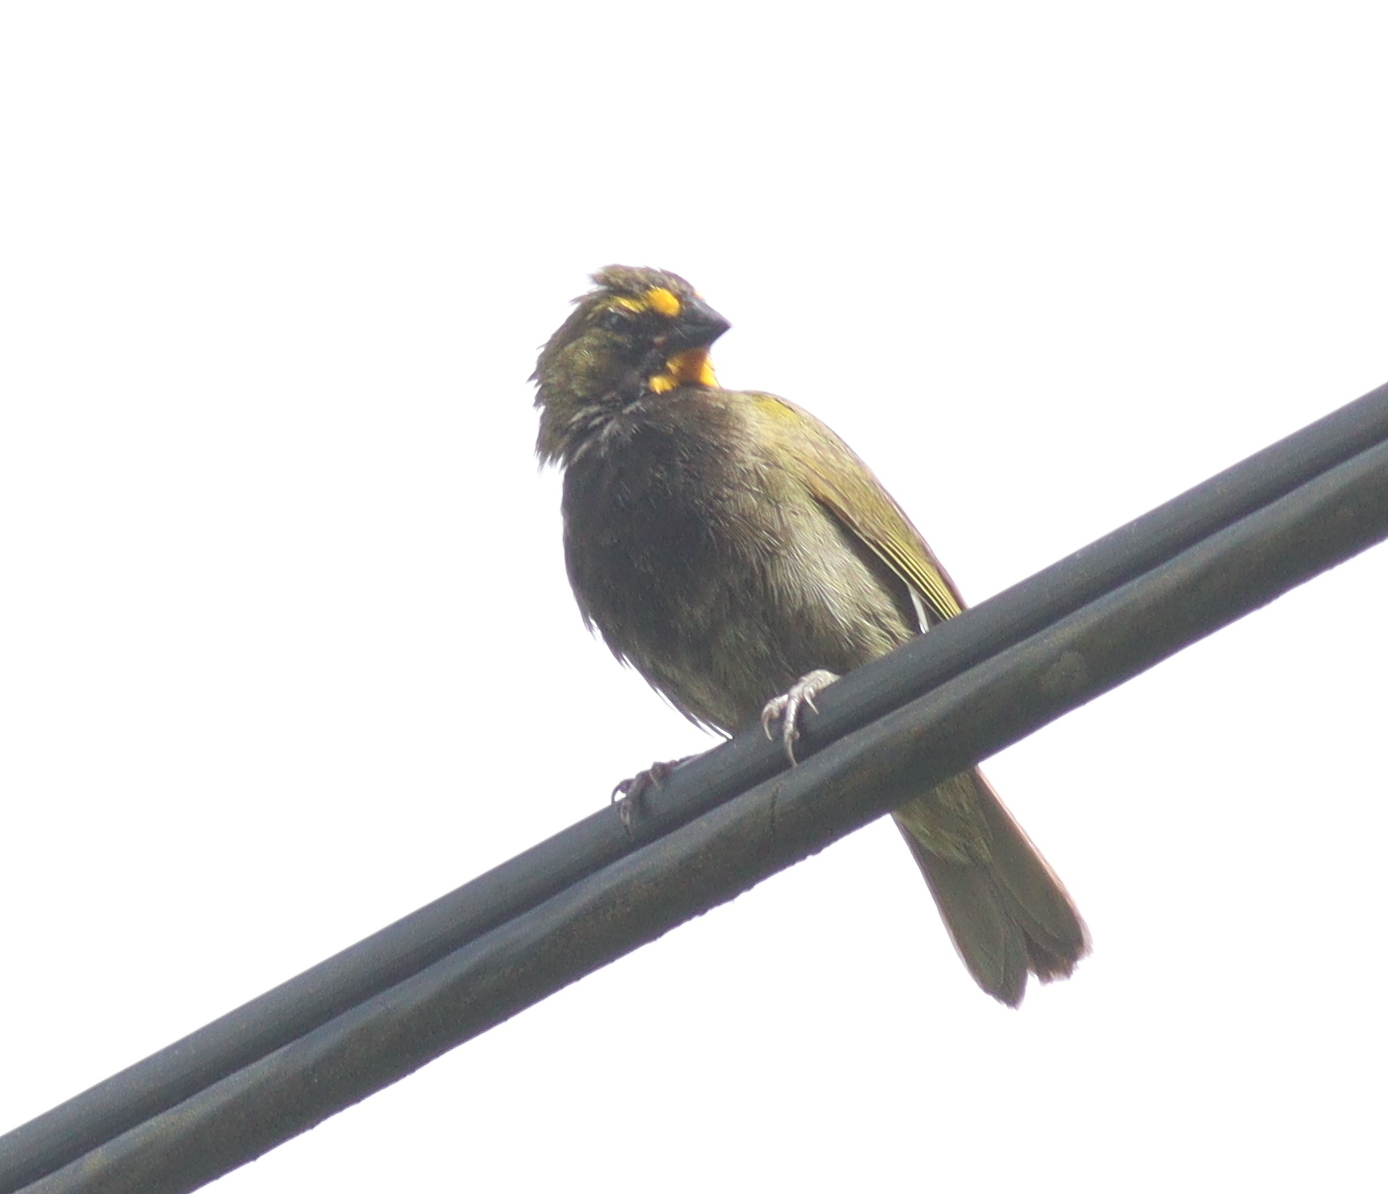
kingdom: Animalia
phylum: Chordata
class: Aves
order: Passeriformes
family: Thraupidae
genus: Tiaris
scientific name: Tiaris olivaceus
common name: Yellow-faced grassquit
